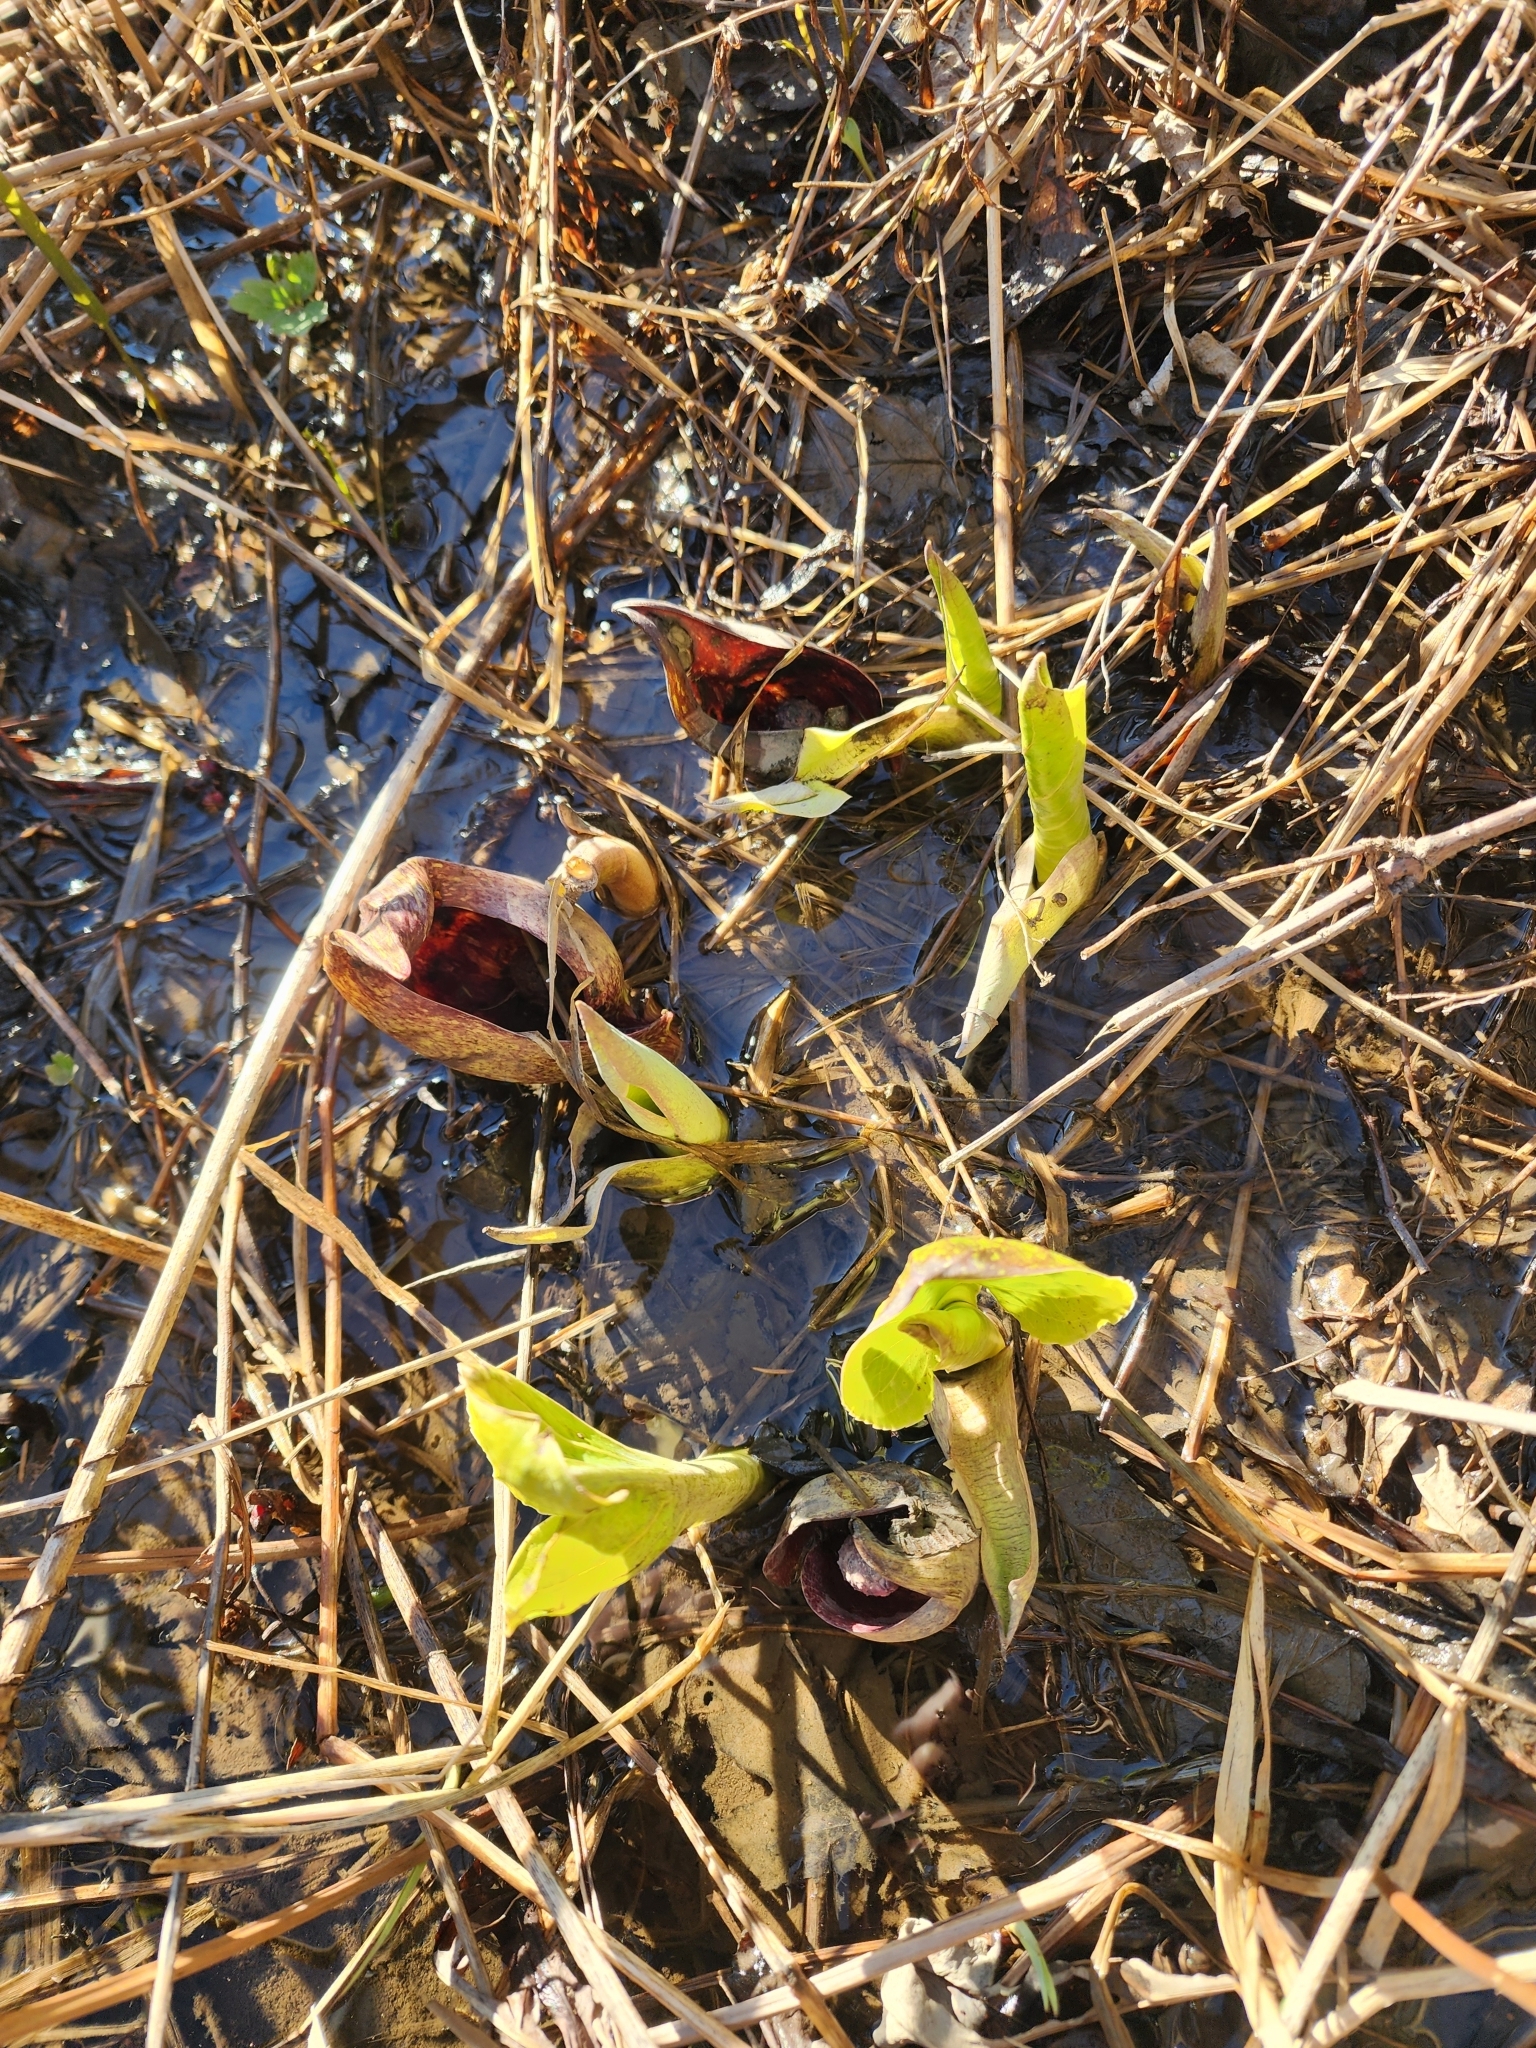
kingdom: Plantae
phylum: Tracheophyta
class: Liliopsida
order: Alismatales
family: Araceae
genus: Symplocarpus
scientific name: Symplocarpus foetidus
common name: Eastern skunk cabbage
